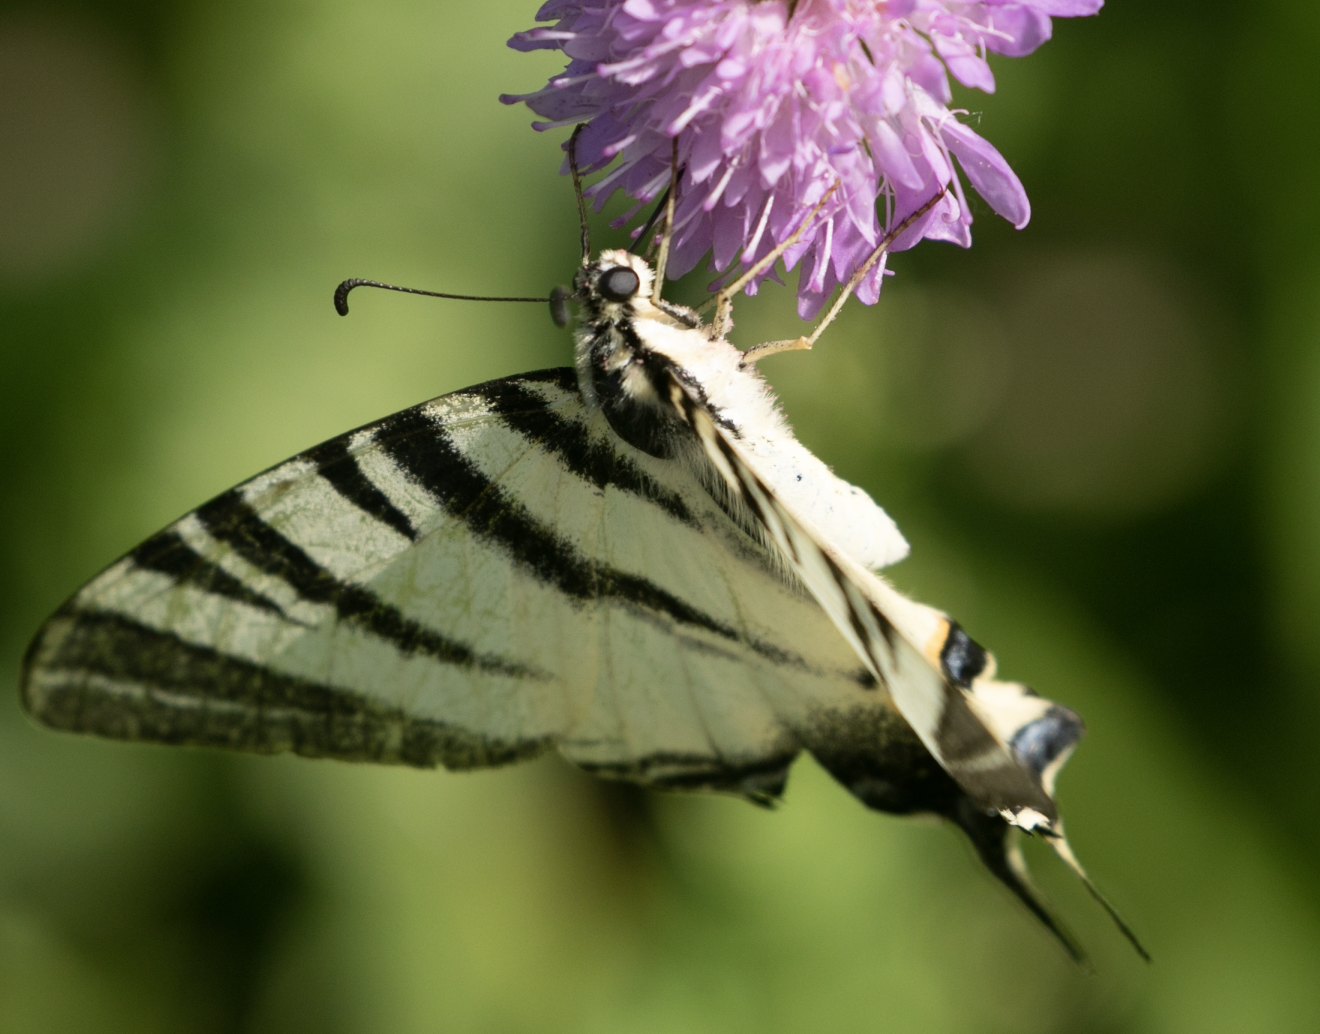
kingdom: Animalia
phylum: Arthropoda
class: Insecta
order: Lepidoptera
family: Papilionidae
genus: Iphiclides
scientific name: Iphiclides podalirius
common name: Scarce swallowtail
